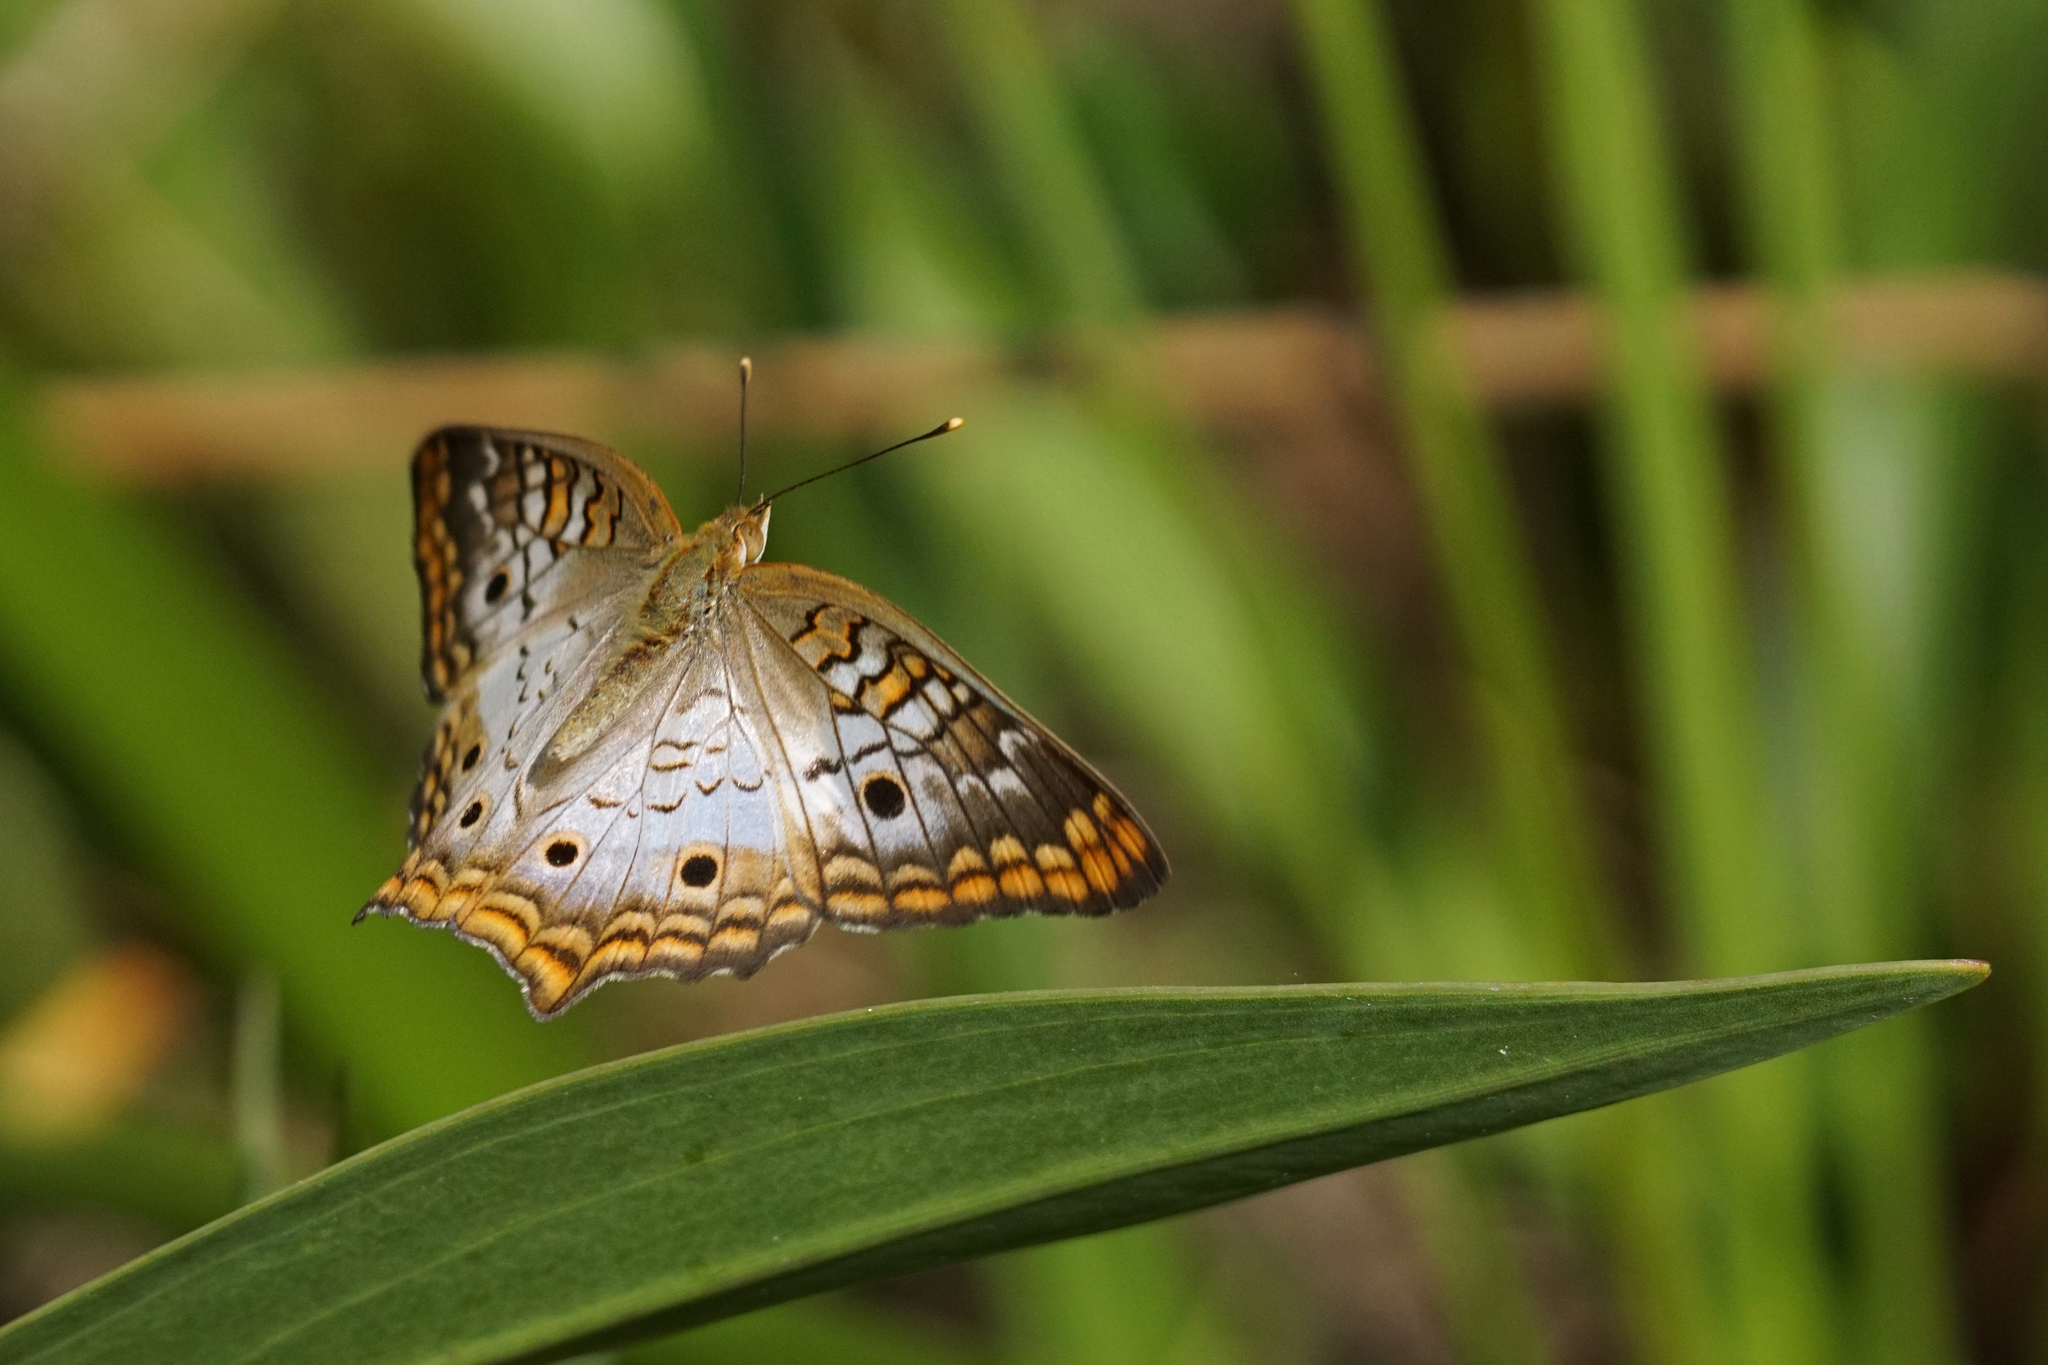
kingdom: Animalia
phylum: Arthropoda
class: Insecta
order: Lepidoptera
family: Nymphalidae
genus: Anartia
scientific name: Anartia jatrophae
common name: White peacock
